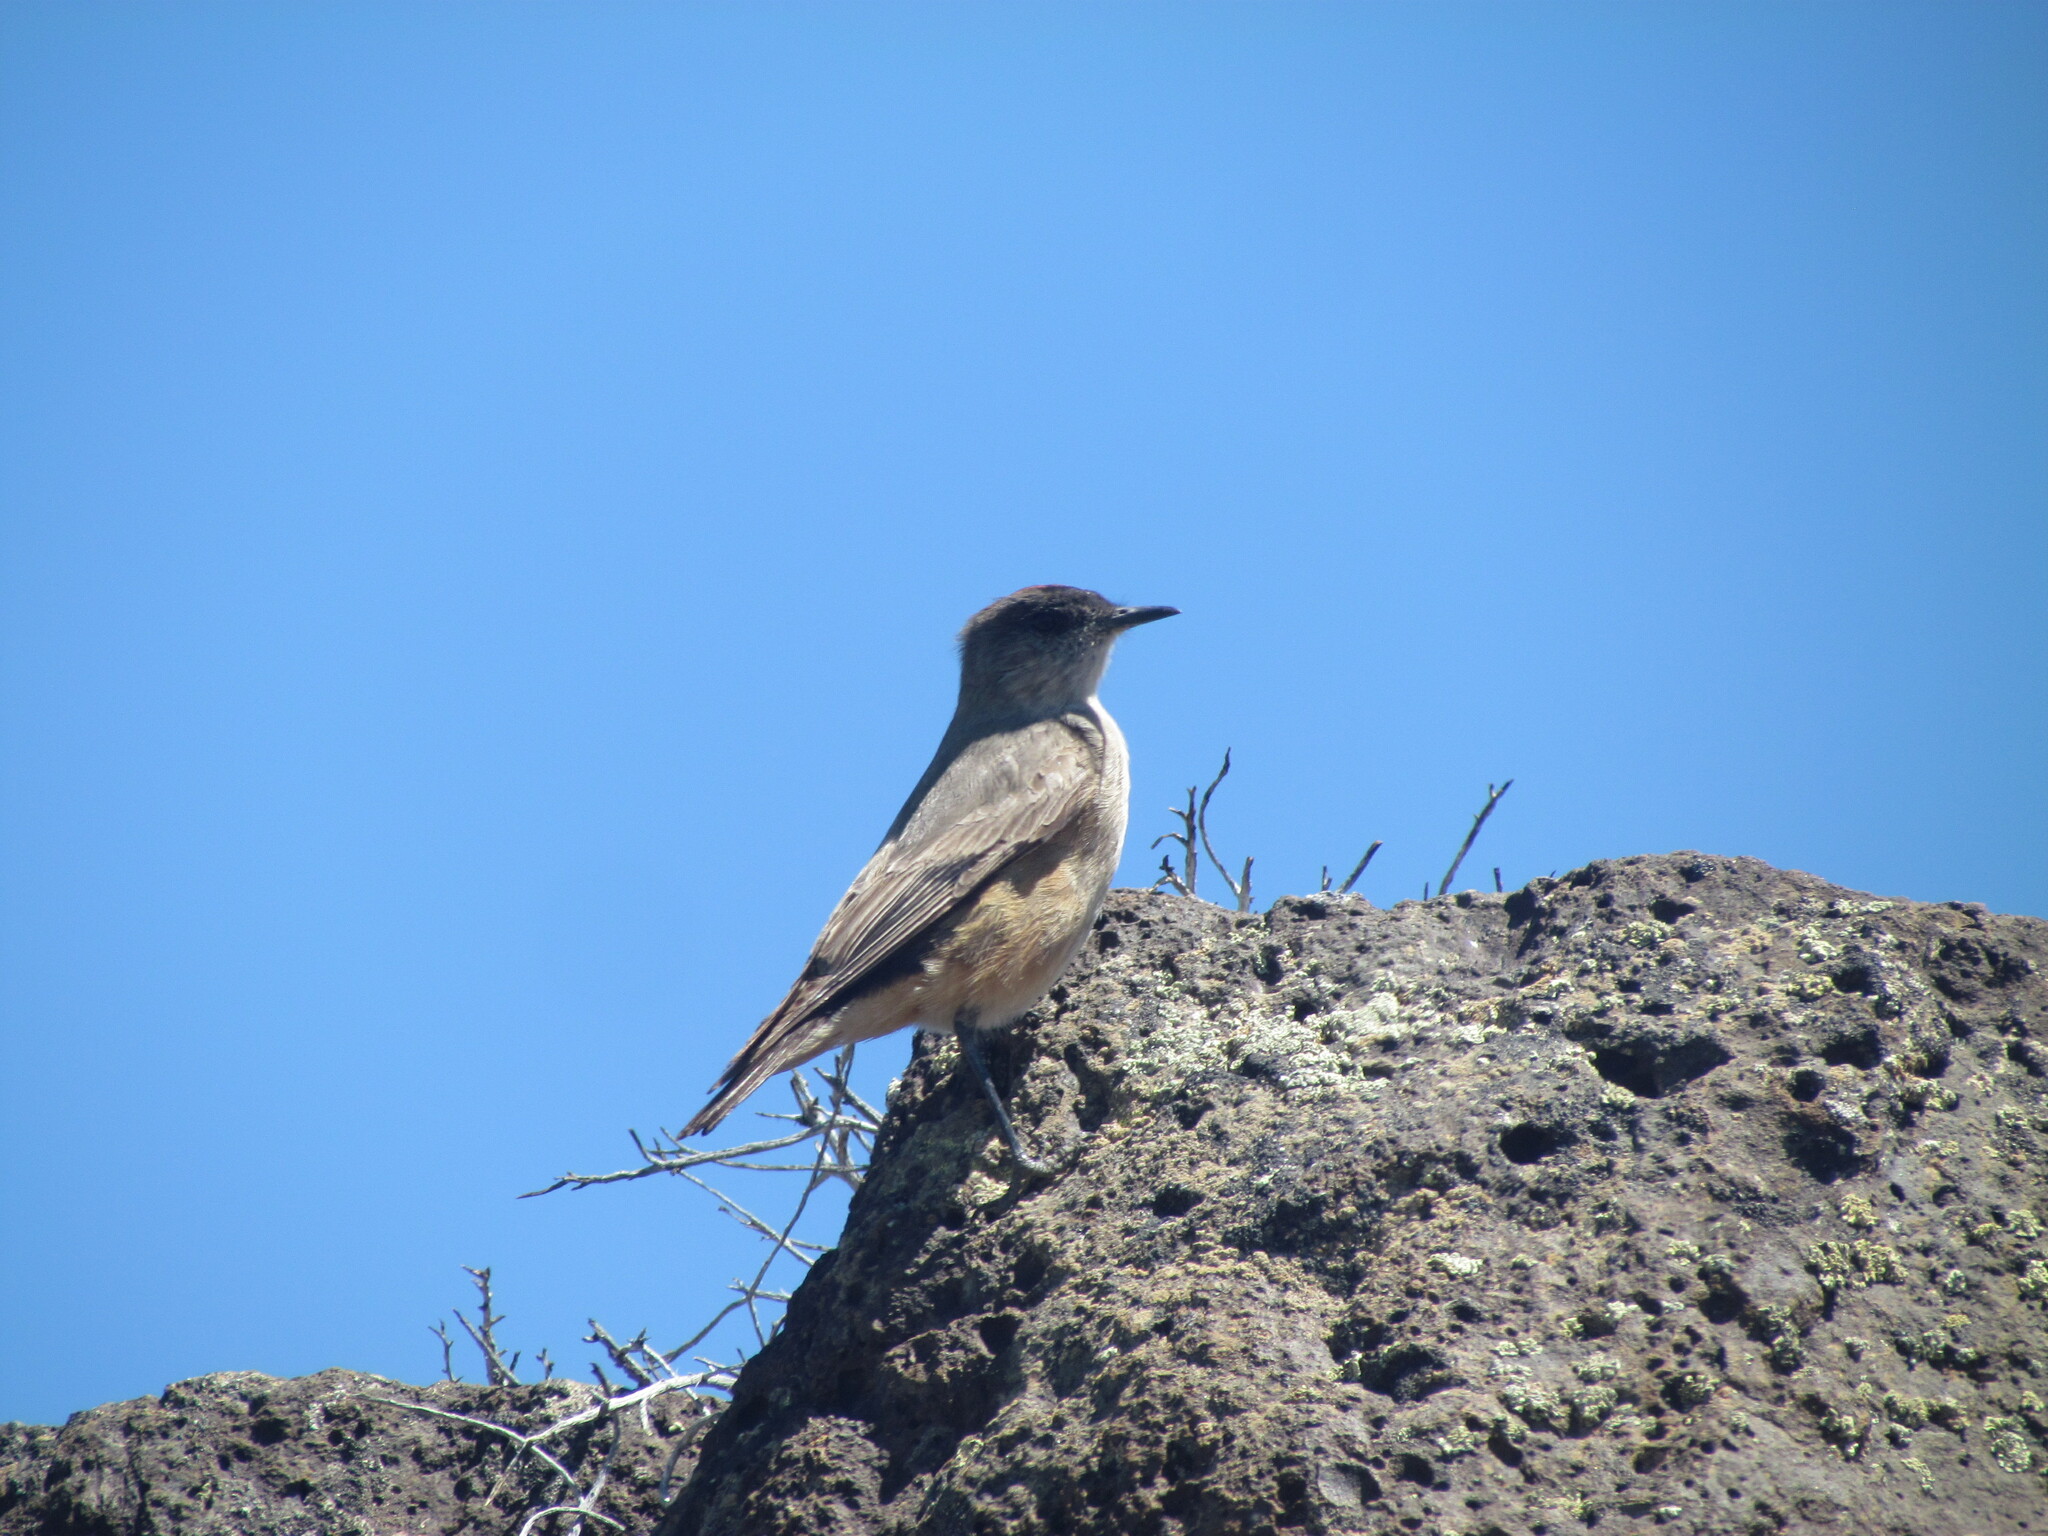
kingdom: Animalia
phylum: Chordata
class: Aves
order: Passeriformes
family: Tyrannidae
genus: Muscisaxicola
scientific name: Muscisaxicola capistratus
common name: Cinnamon-bellied ground tyrant
